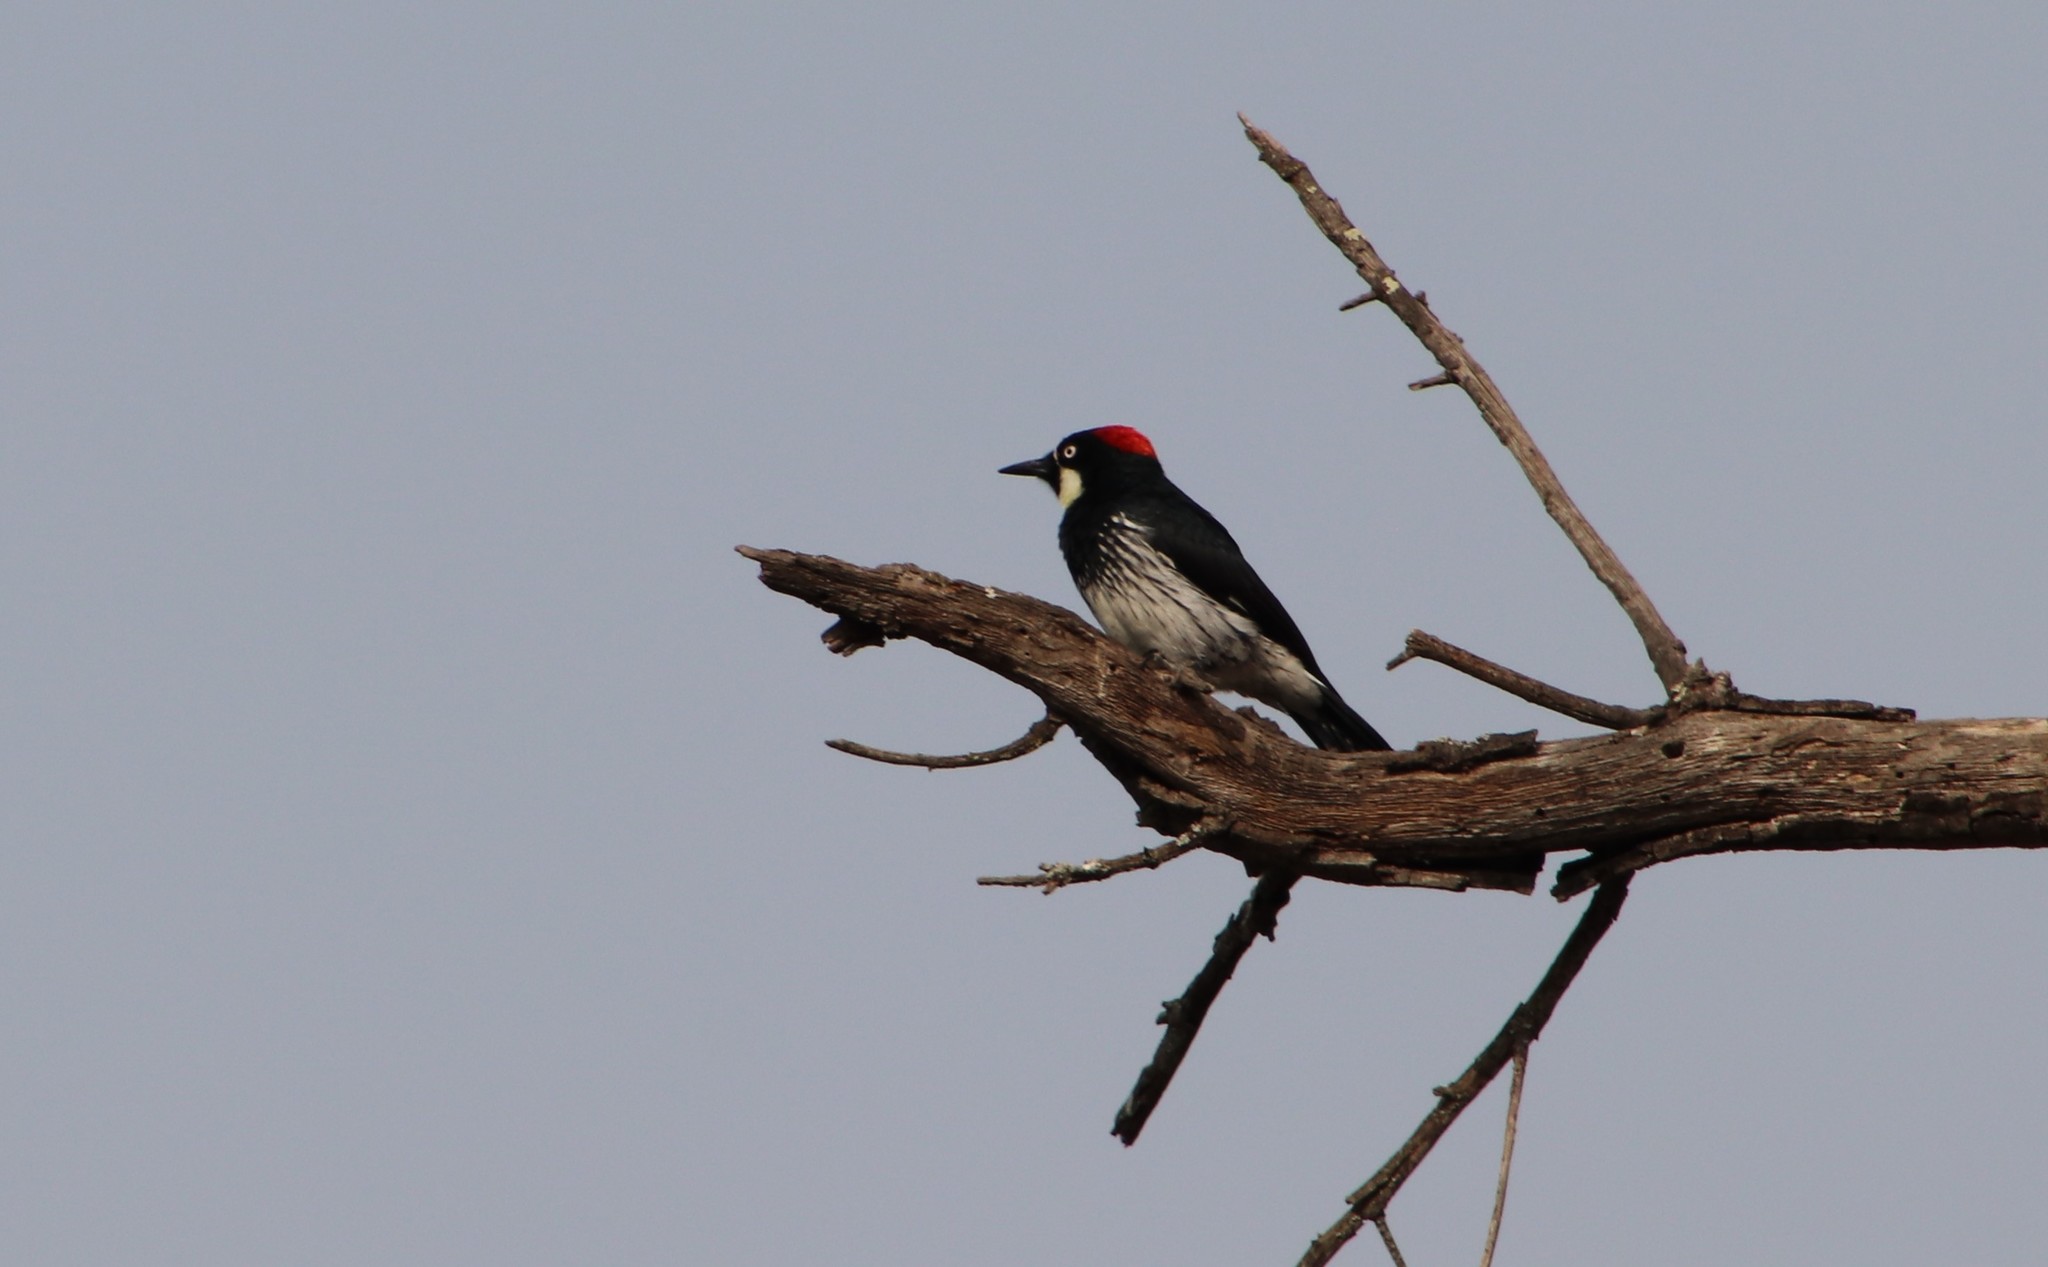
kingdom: Animalia
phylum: Chordata
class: Aves
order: Piciformes
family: Picidae
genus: Melanerpes
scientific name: Melanerpes formicivorus
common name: Acorn woodpecker
